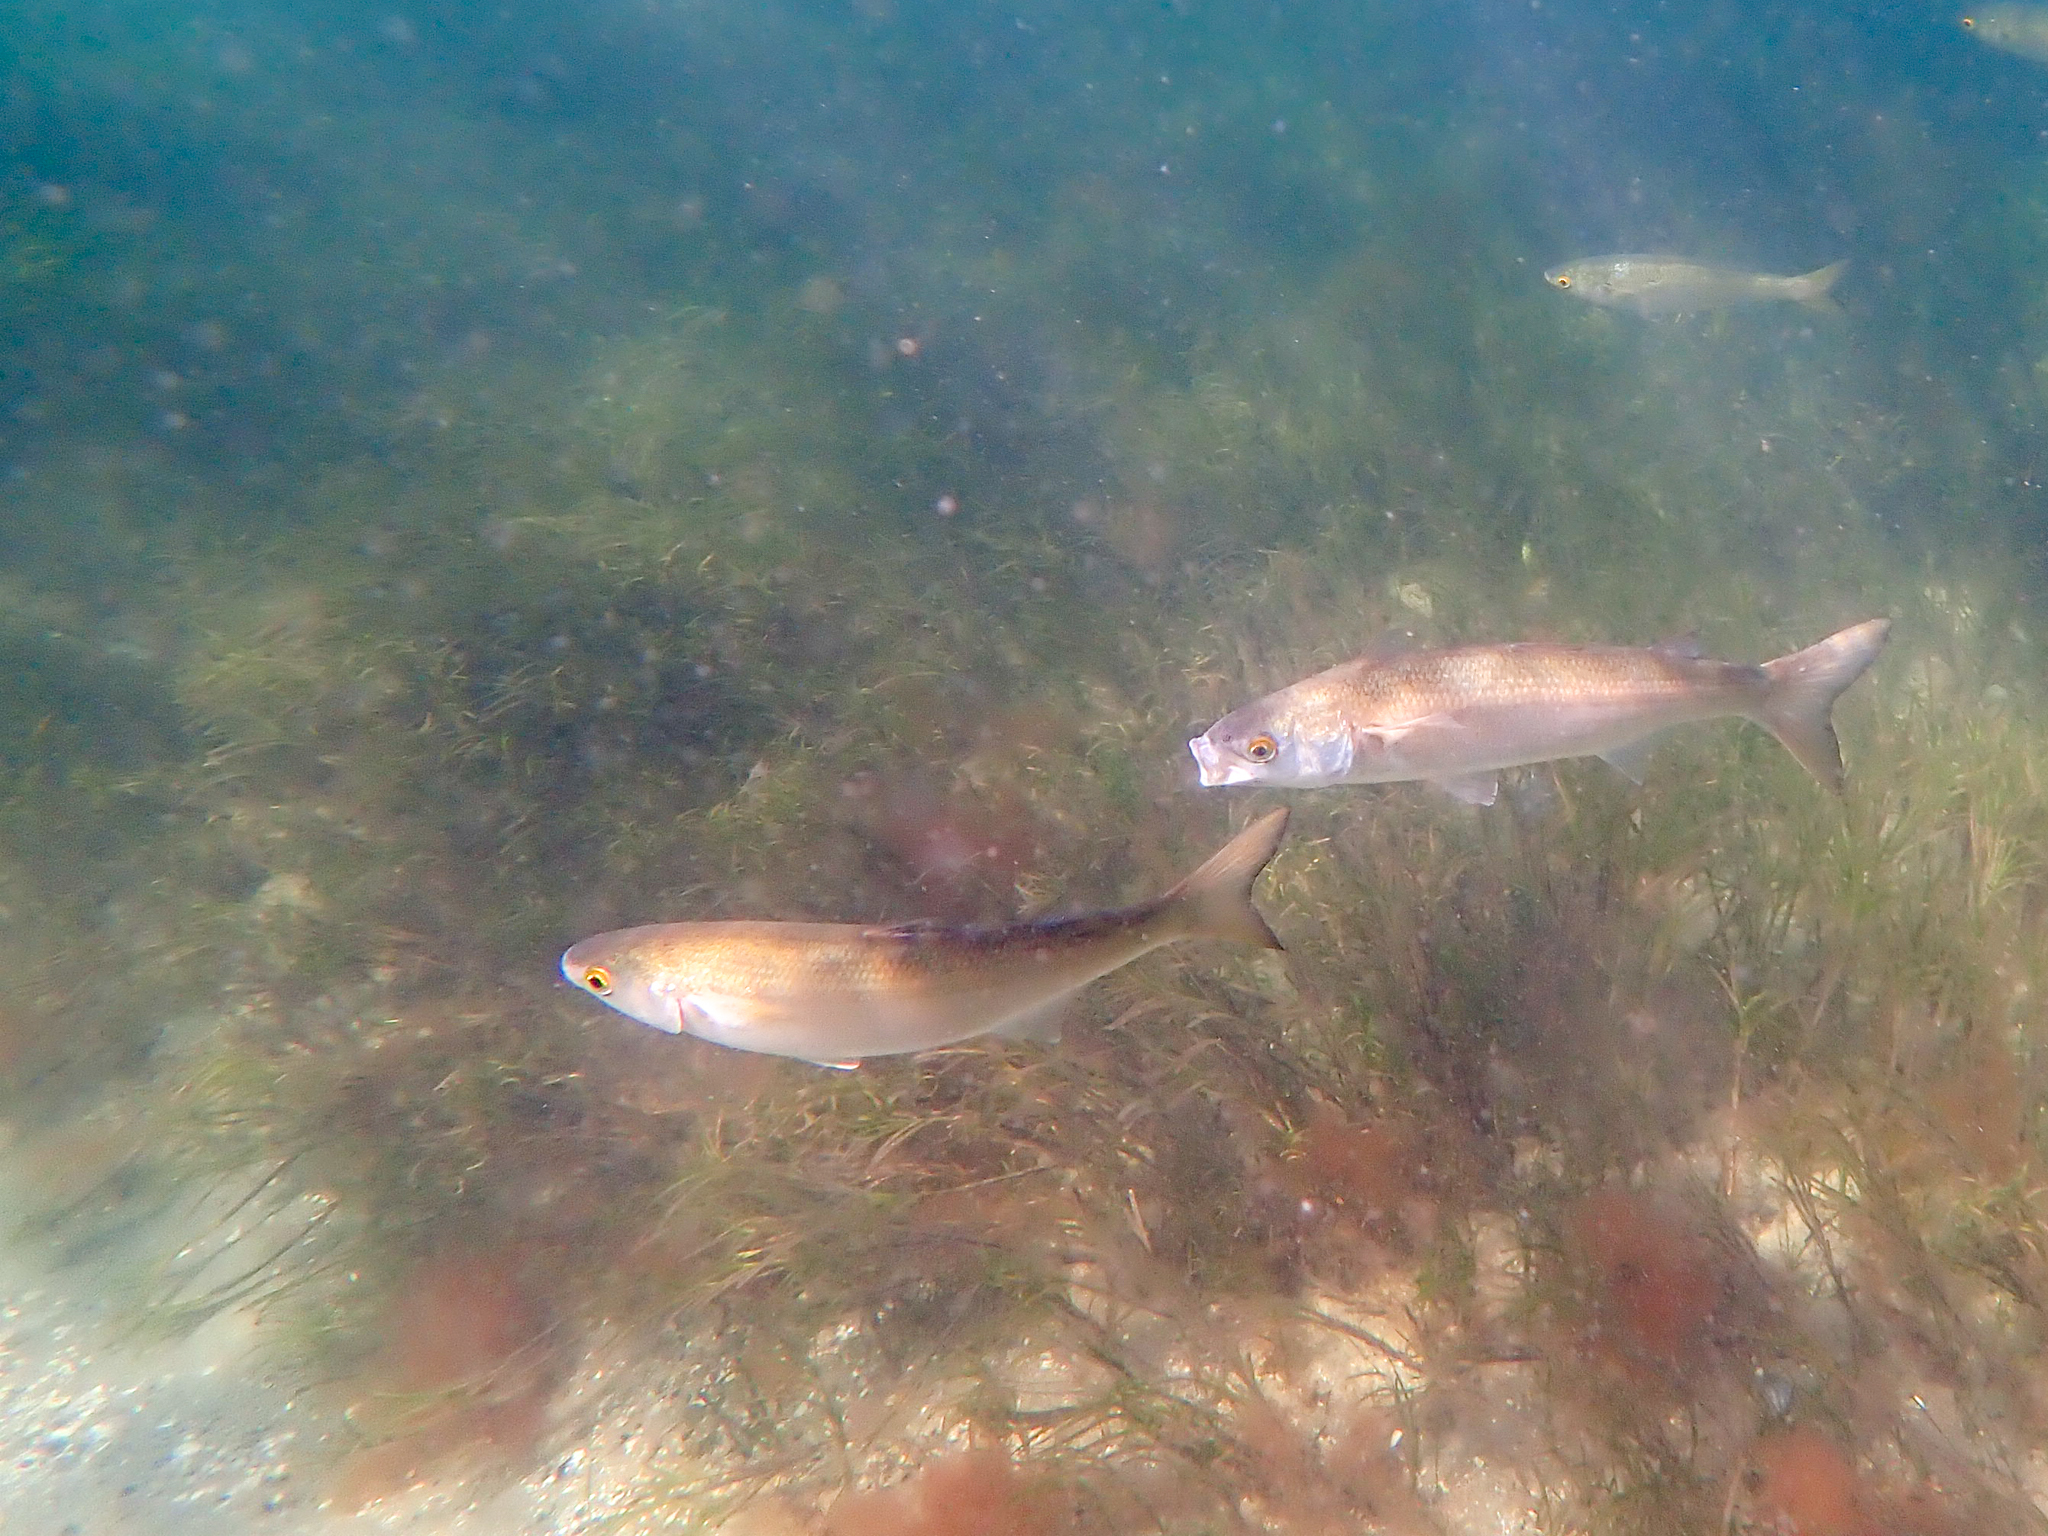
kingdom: Animalia
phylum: Chordata
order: Mugiliformes
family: Mugilidae
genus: Aldrichetta
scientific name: Aldrichetta forsteri
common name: Yellow-eye mullet
